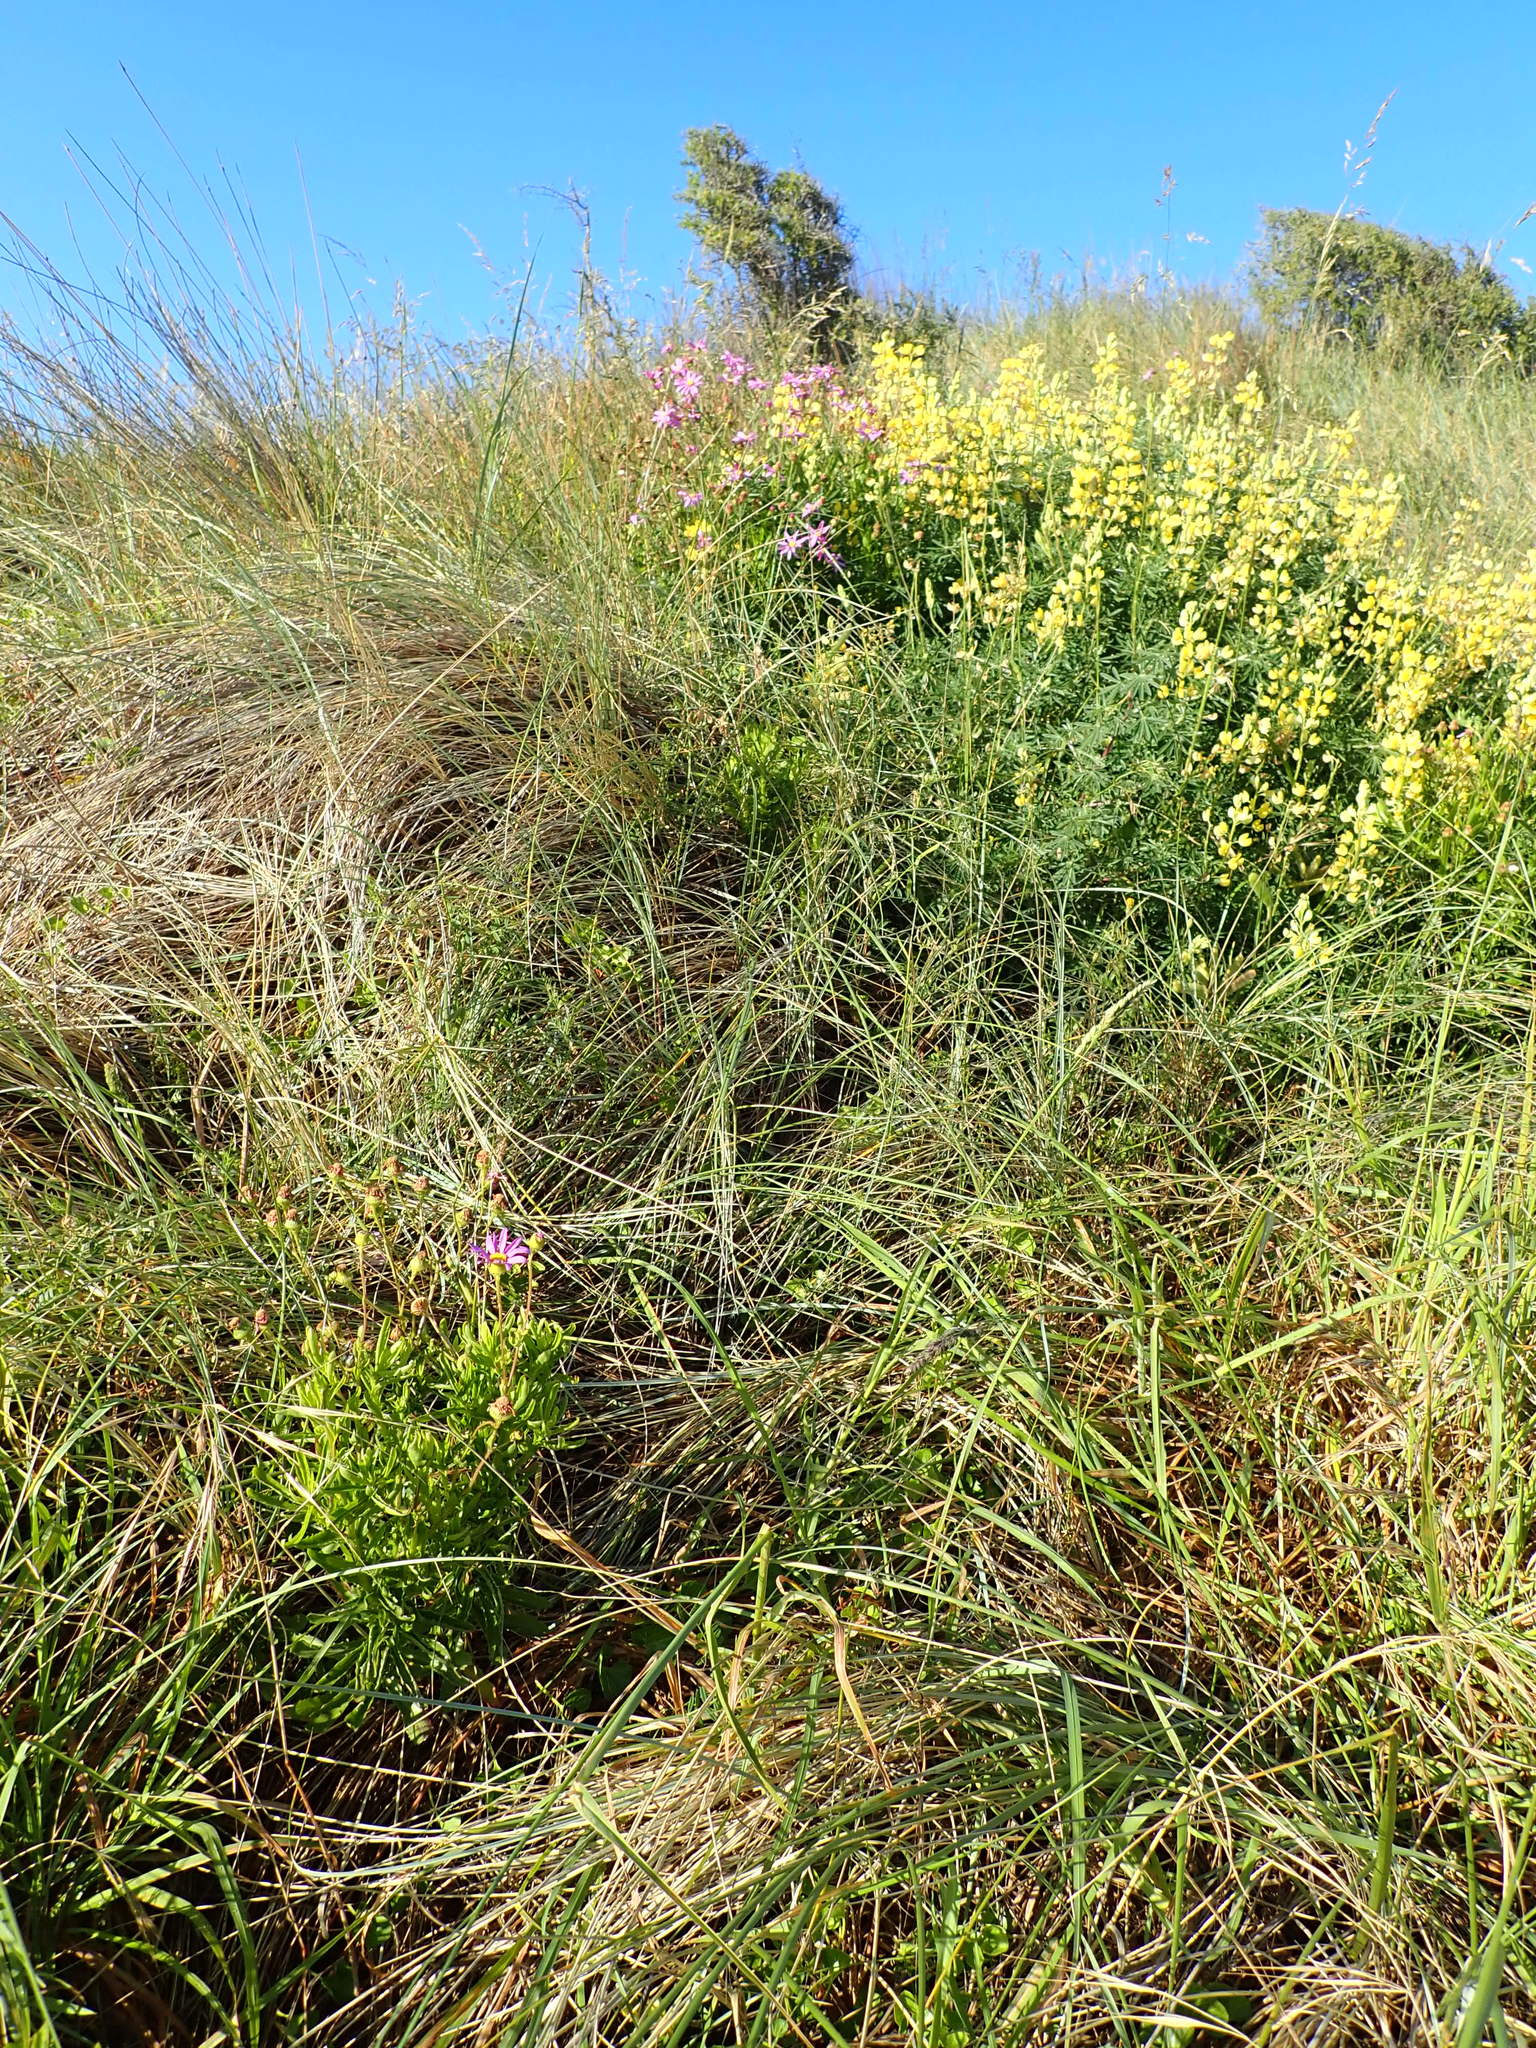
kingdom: Plantae
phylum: Tracheophyta
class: Magnoliopsida
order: Asterales
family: Asteraceae
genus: Senecio
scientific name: Senecio glastifolius
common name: Woad-leaved ragwort
